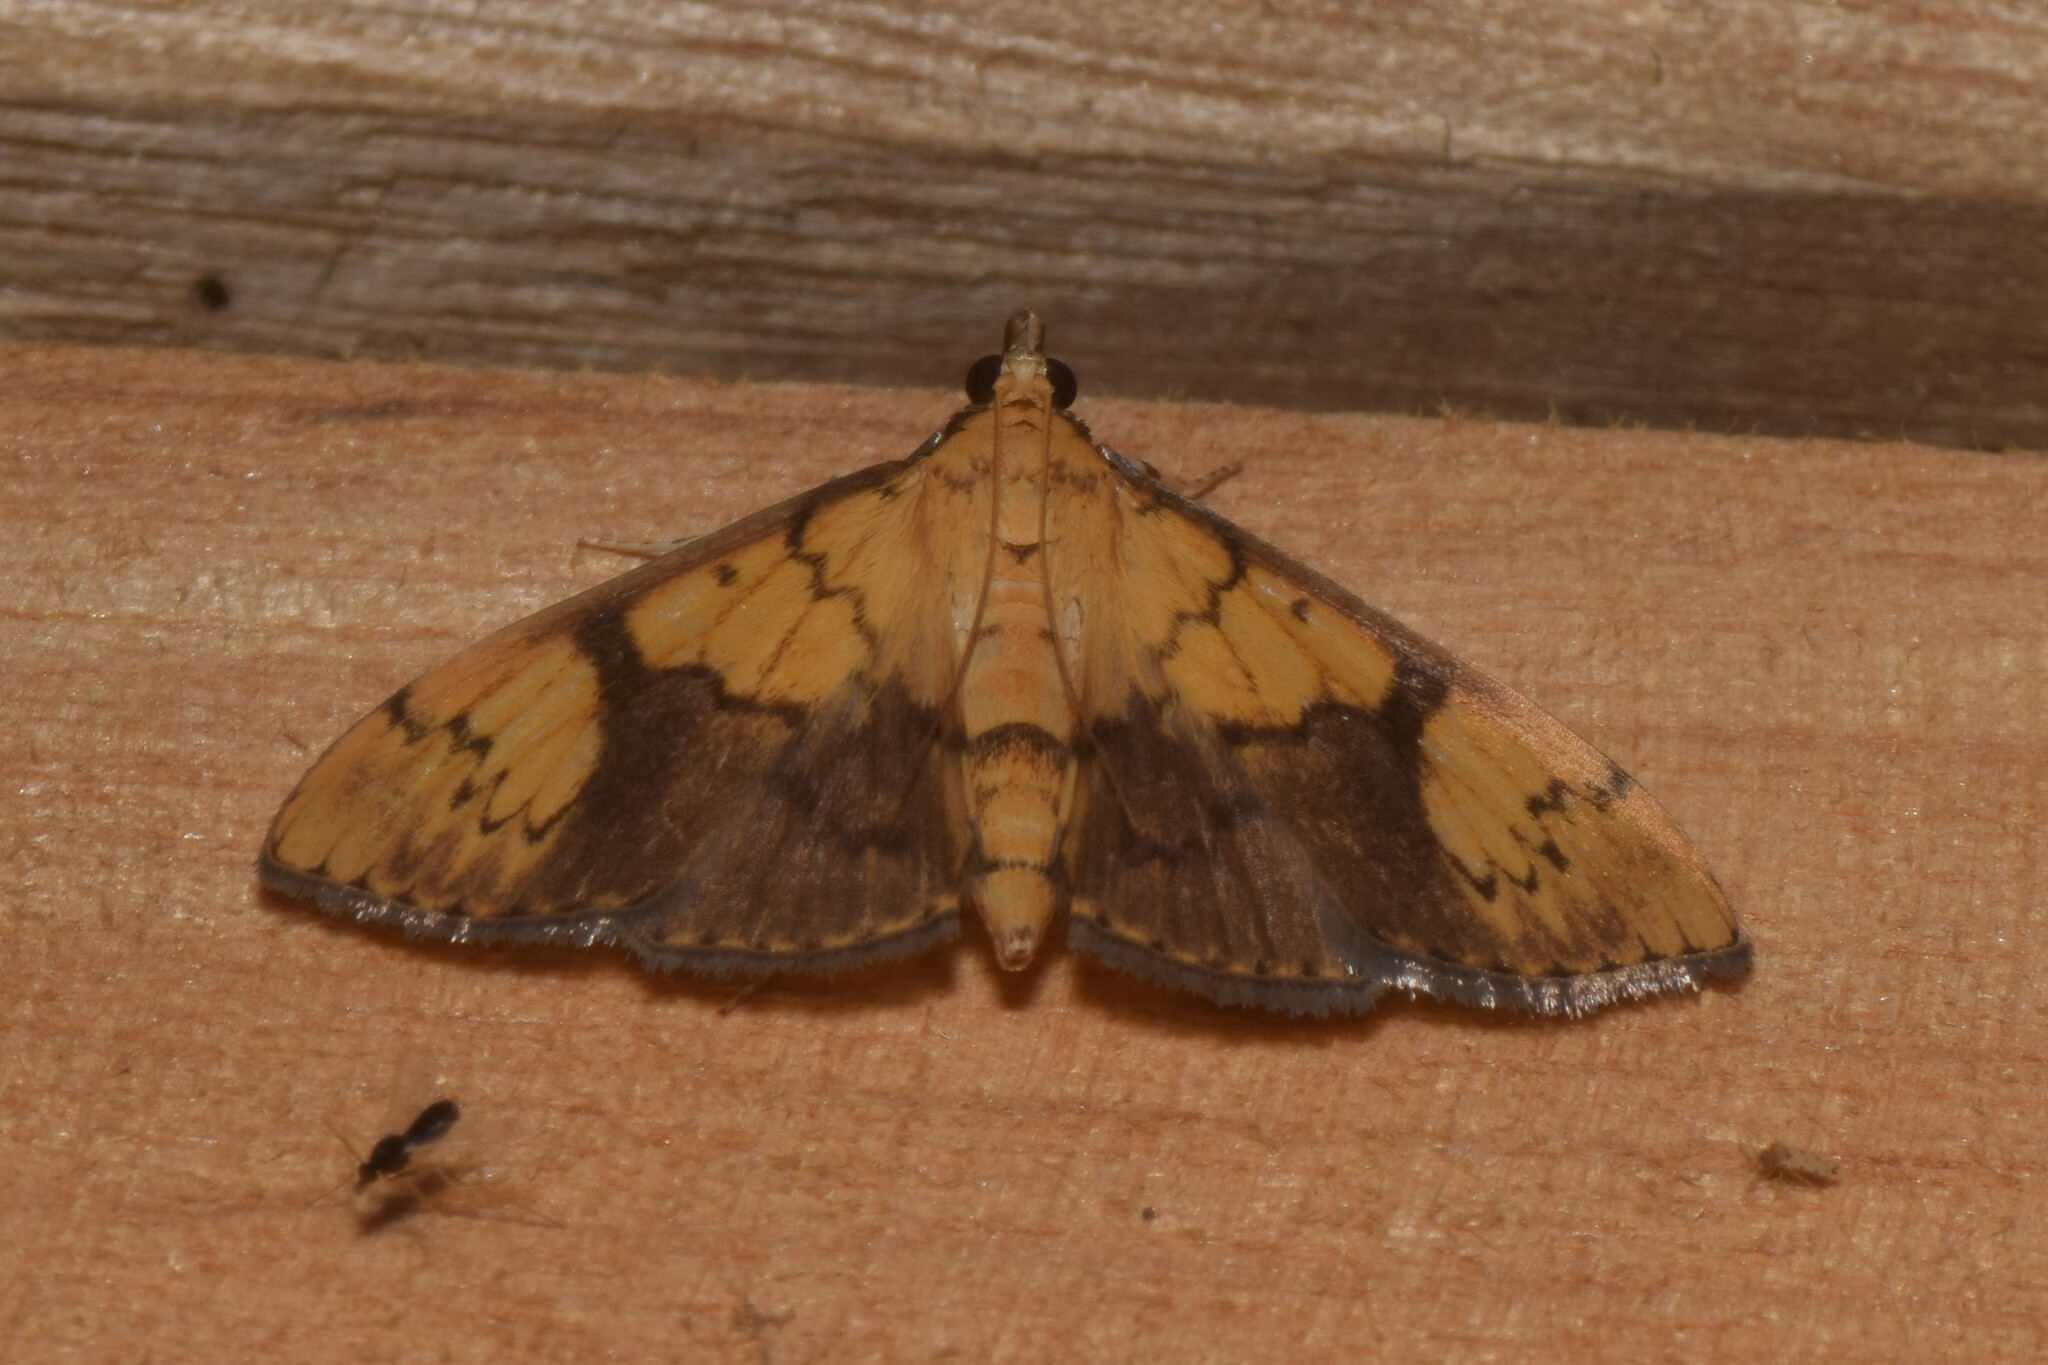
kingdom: Animalia
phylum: Arthropoda
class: Insecta
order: Lepidoptera
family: Crambidae
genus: Patania
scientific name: Patania
